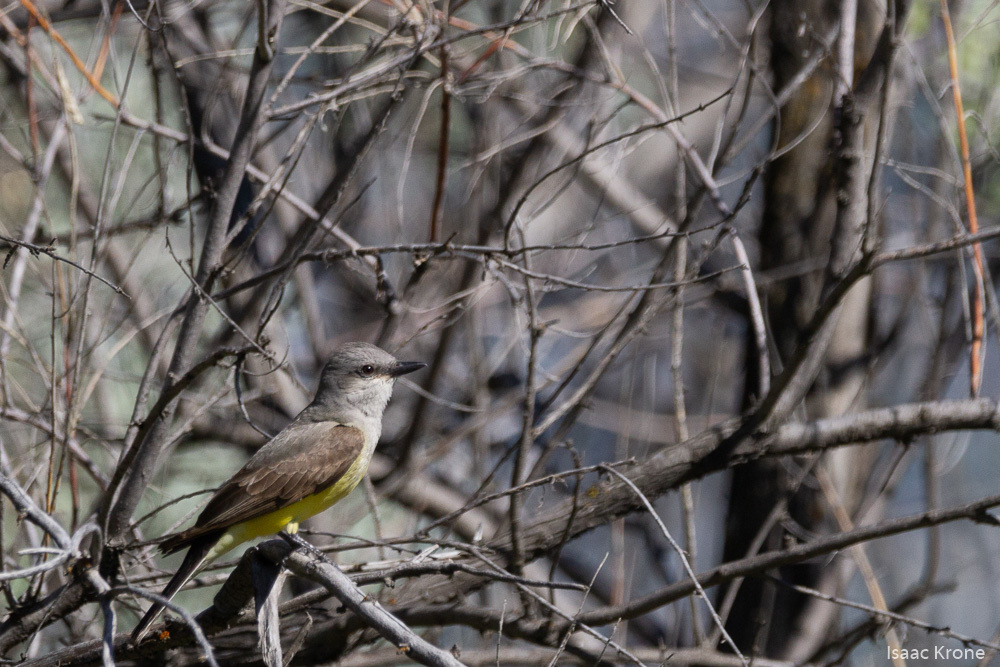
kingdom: Animalia
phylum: Chordata
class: Aves
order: Passeriformes
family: Tyrannidae
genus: Tyrannus
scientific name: Tyrannus verticalis
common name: Western kingbird
